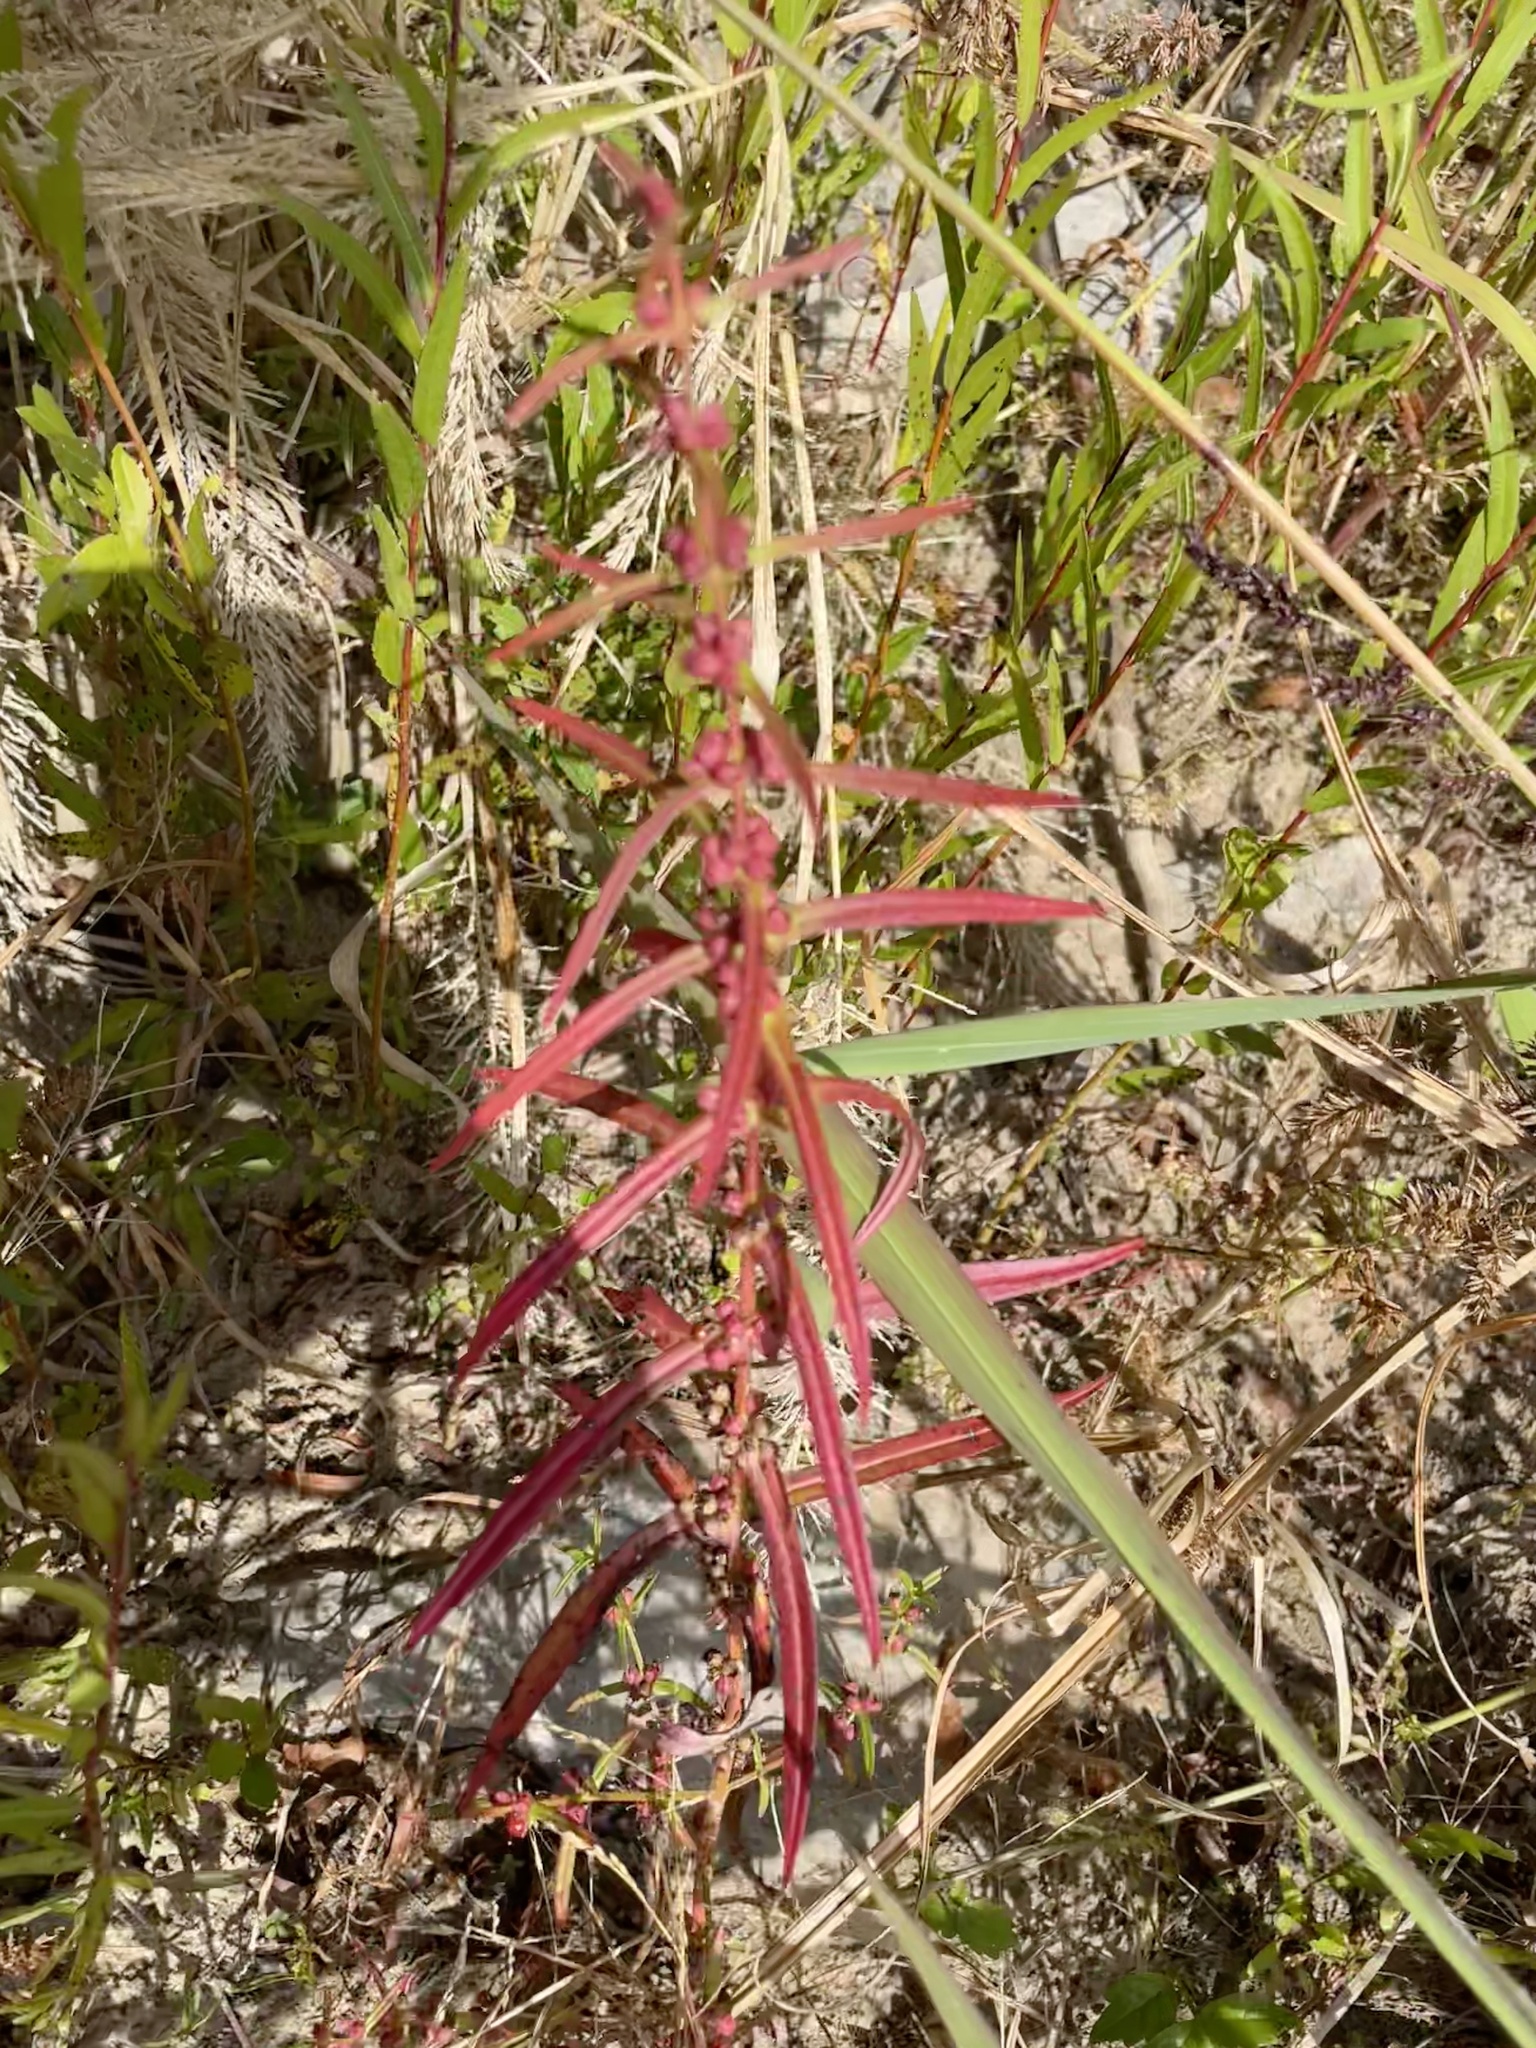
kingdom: Plantae
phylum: Tracheophyta
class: Magnoliopsida
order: Myrtales
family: Lythraceae
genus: Ammannia
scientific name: Ammannia coccinea
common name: Valley redstem
